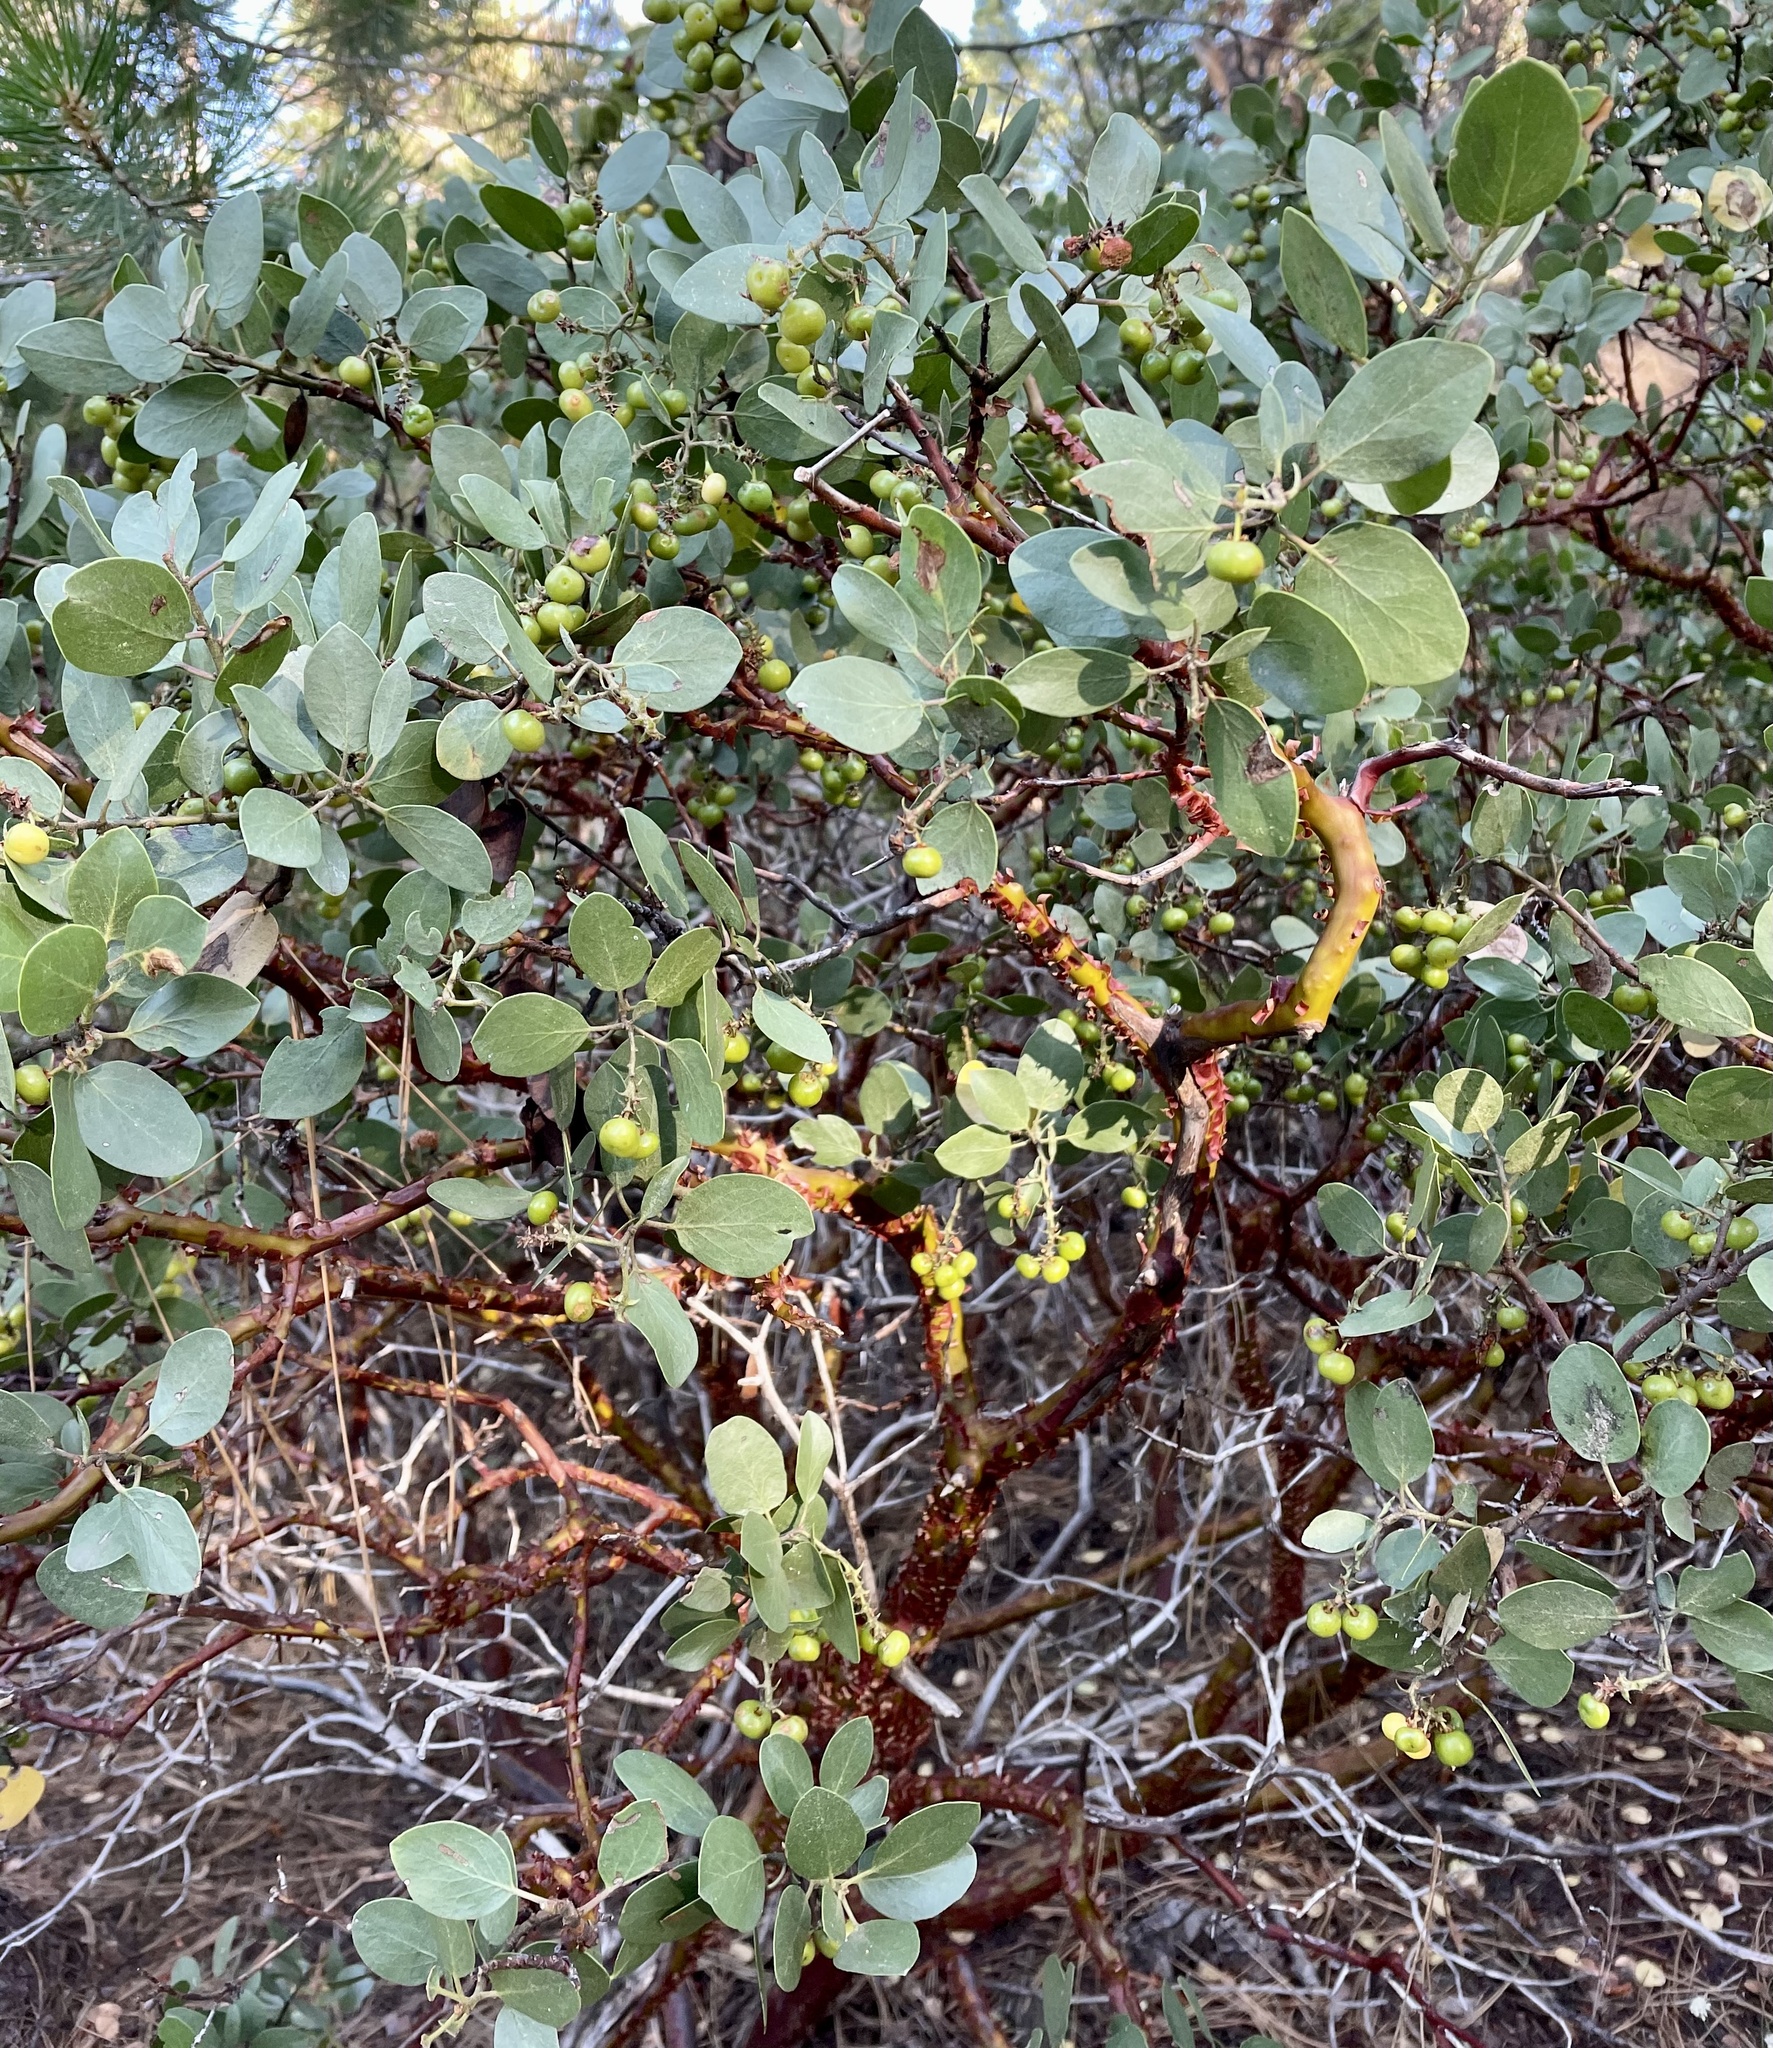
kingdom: Plantae
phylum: Tracheophyta
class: Magnoliopsida
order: Ericales
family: Ericaceae
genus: Arctostaphylos
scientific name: Arctostaphylos patula
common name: Green-leaf manzanita
